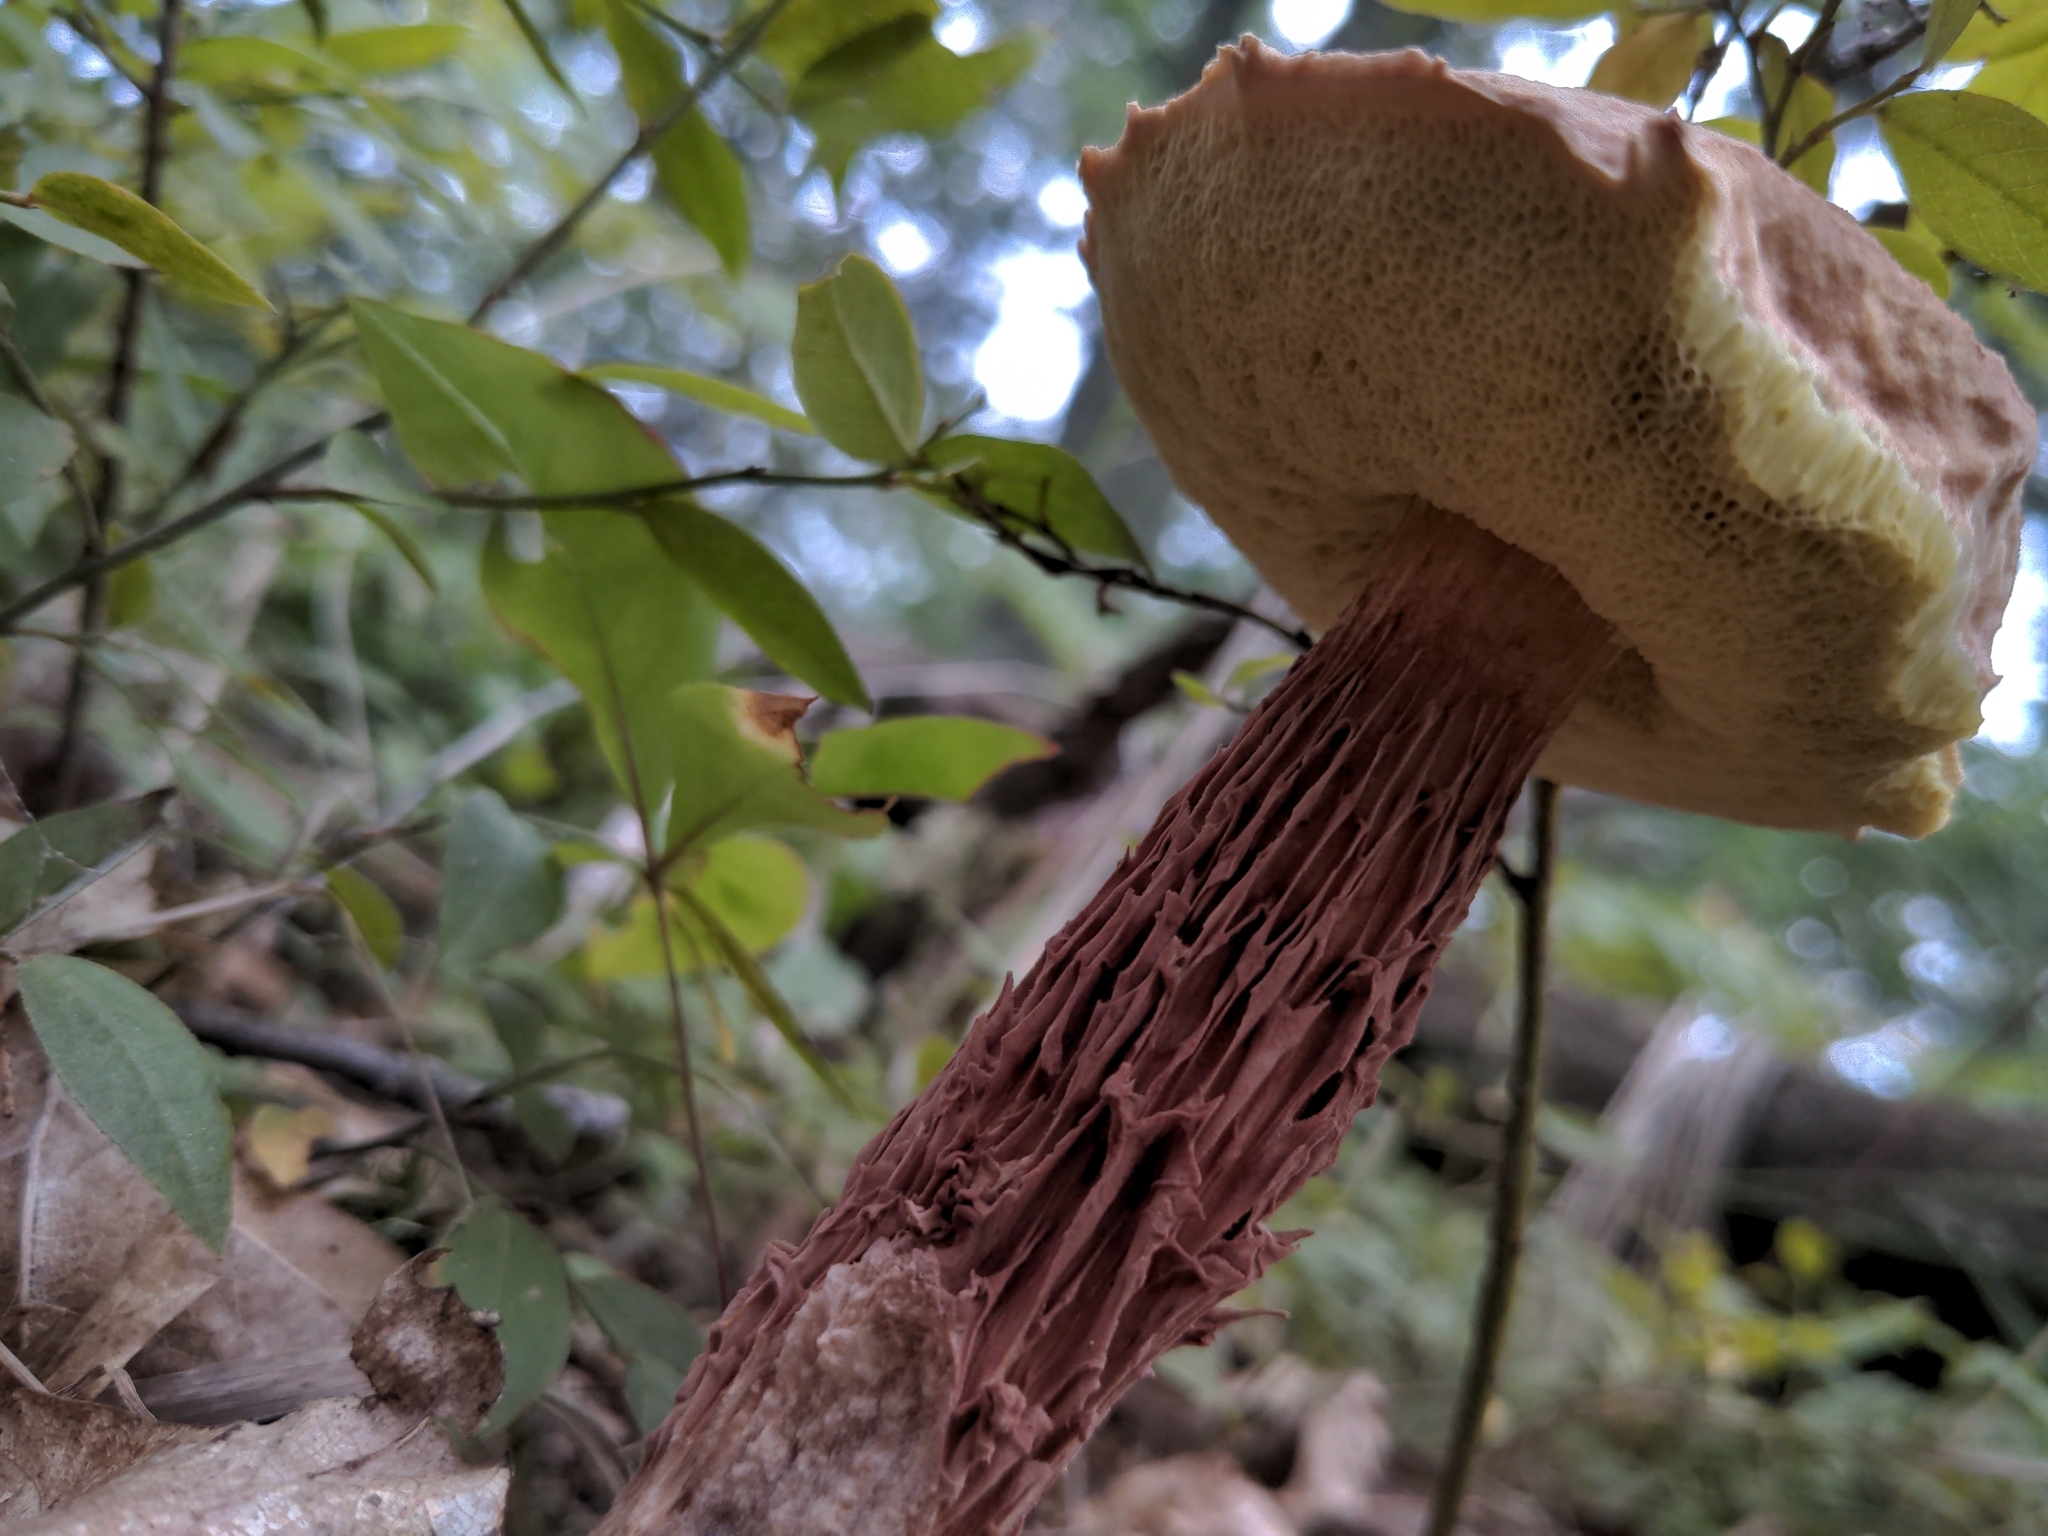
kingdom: Fungi
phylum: Basidiomycota
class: Agaricomycetes
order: Boletales
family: Boletaceae
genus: Aureoboletus
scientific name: Aureoboletus russellii
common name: Russell's bolete
